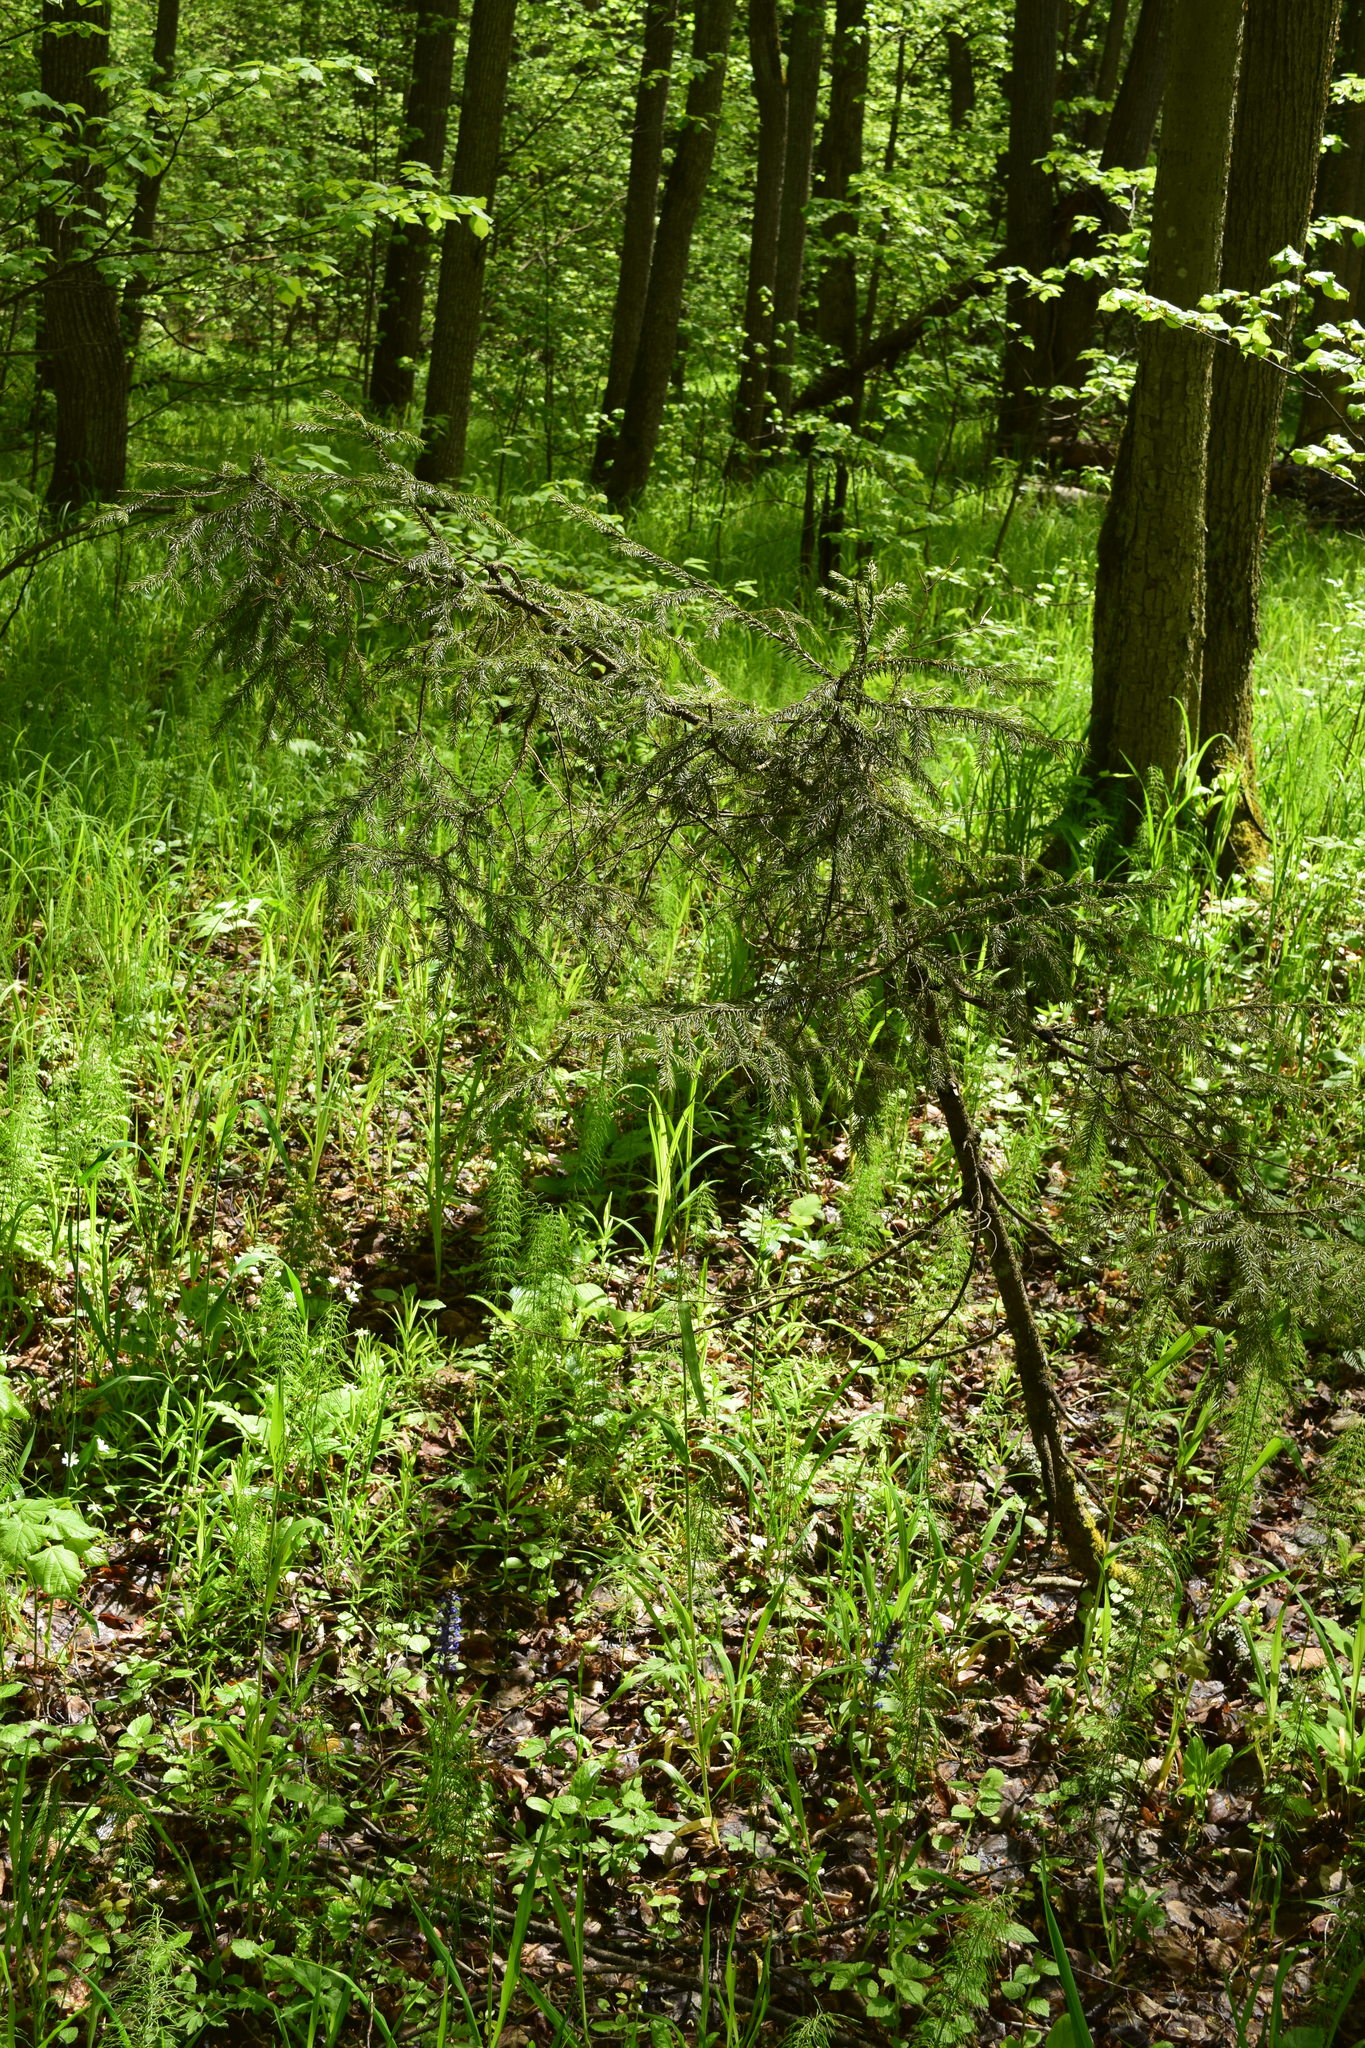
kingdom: Plantae
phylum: Tracheophyta
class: Pinopsida
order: Pinales
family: Pinaceae
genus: Picea
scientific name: Picea abies
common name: Norway spruce
